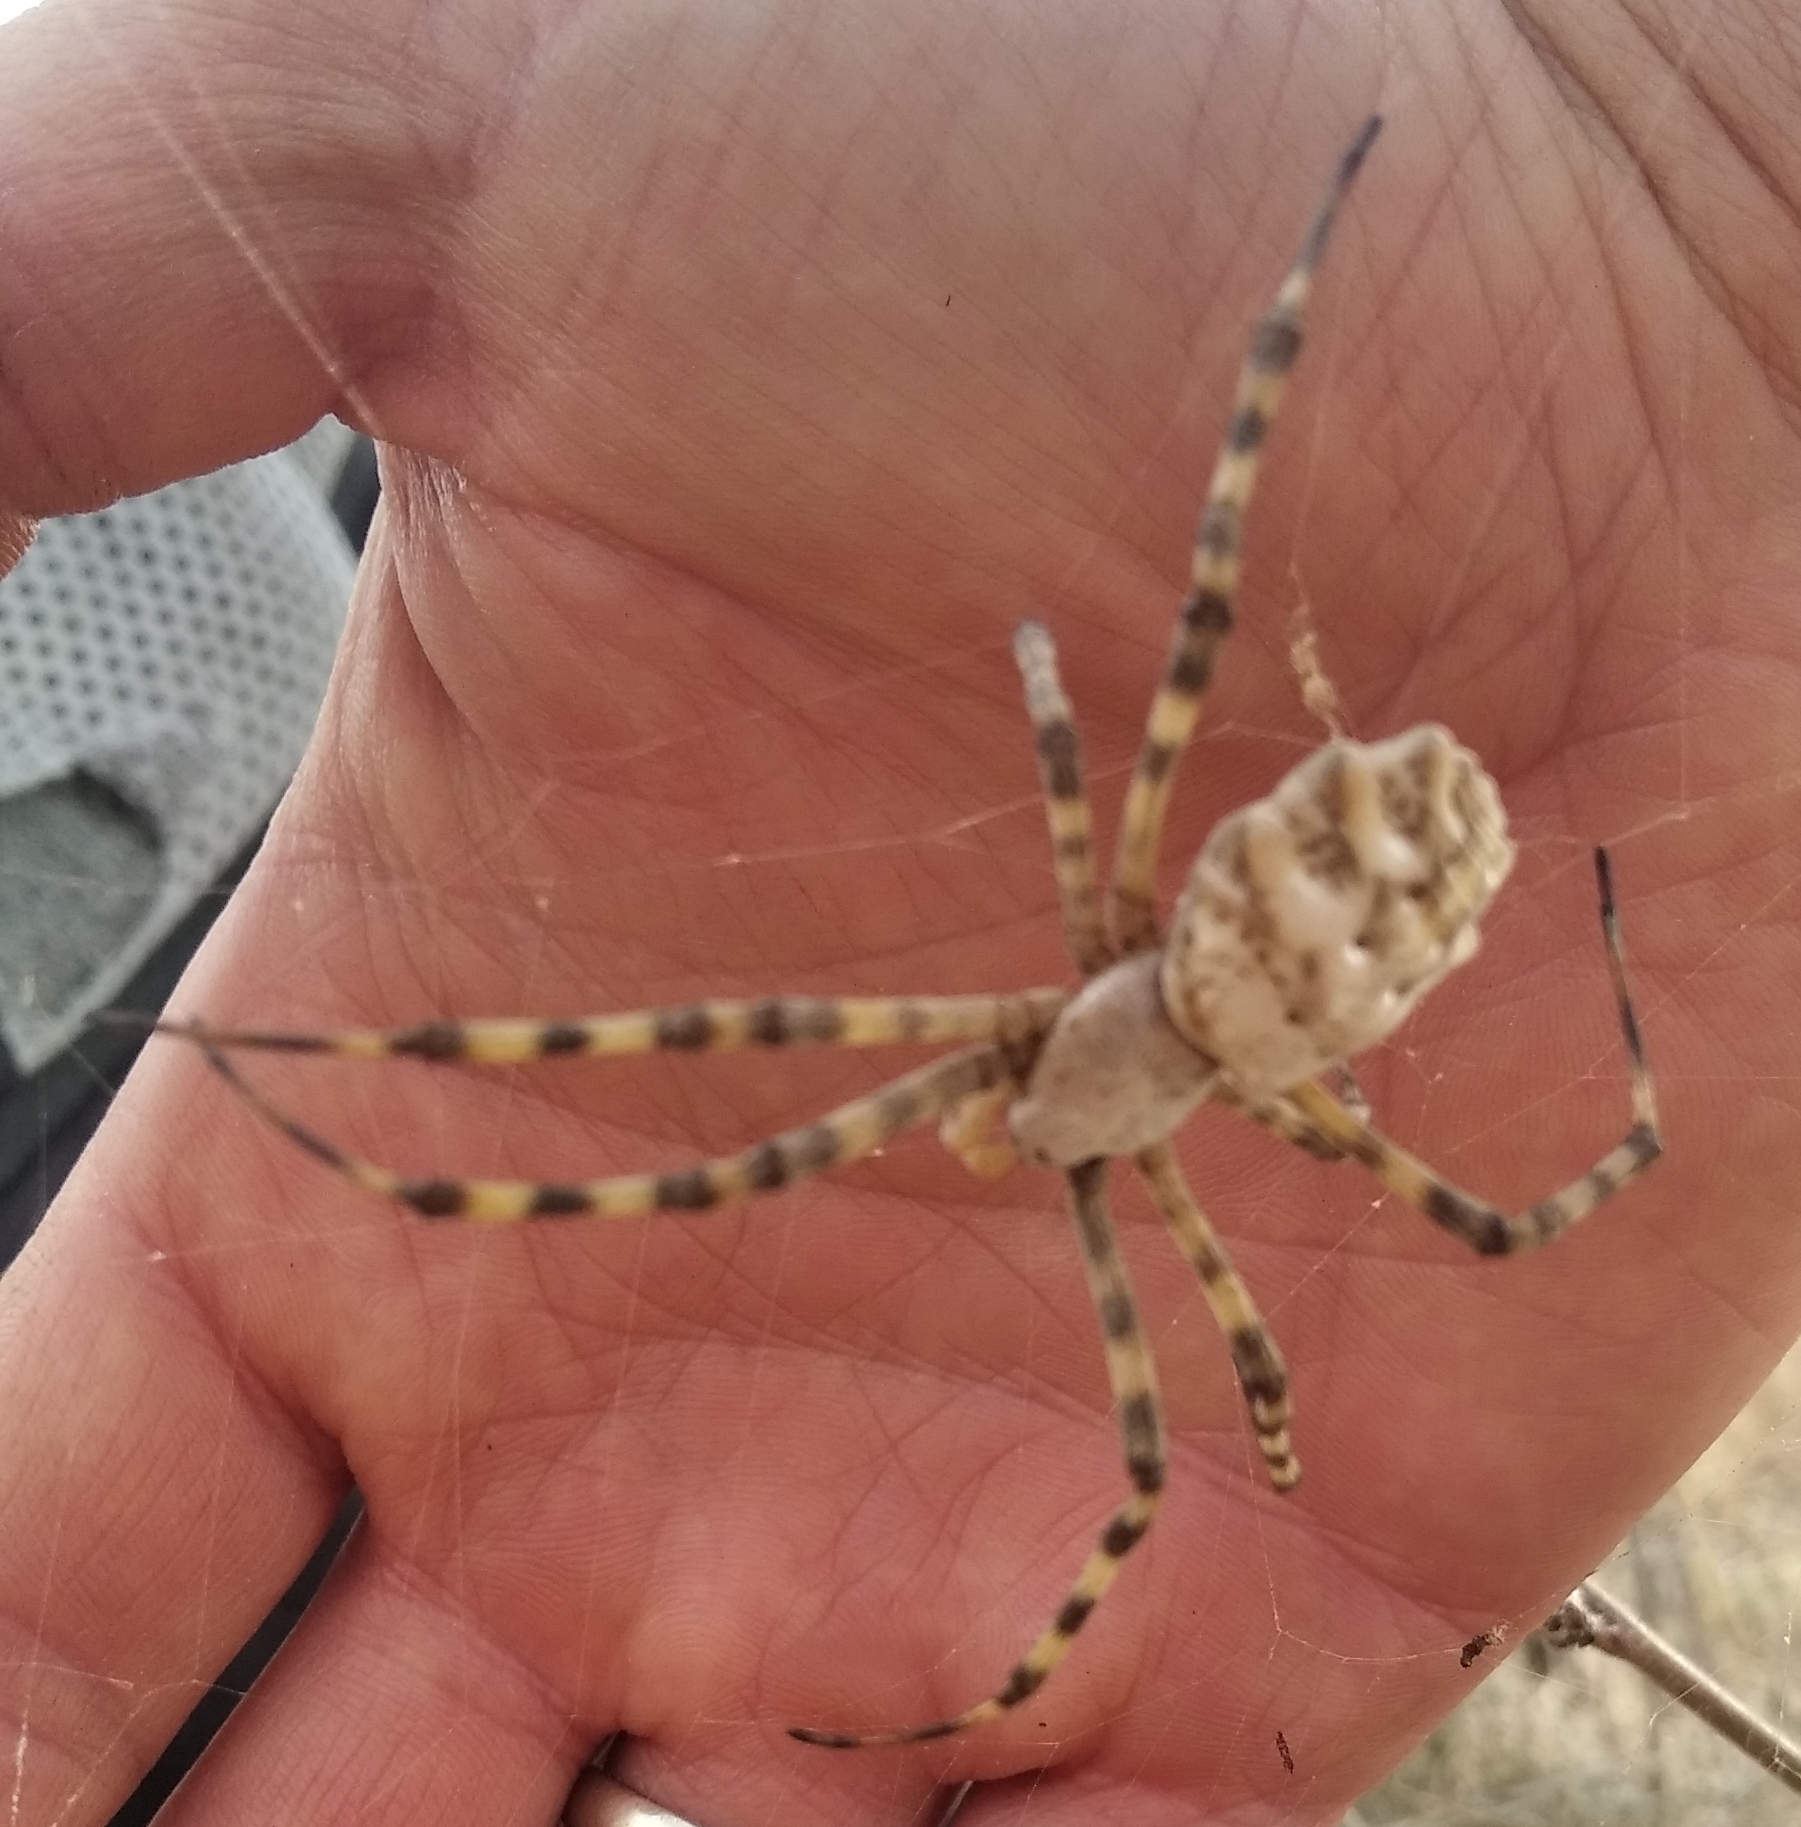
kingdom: Animalia
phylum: Arthropoda
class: Arachnida
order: Araneae
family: Araneidae
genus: Argiope
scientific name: Argiope lobata
